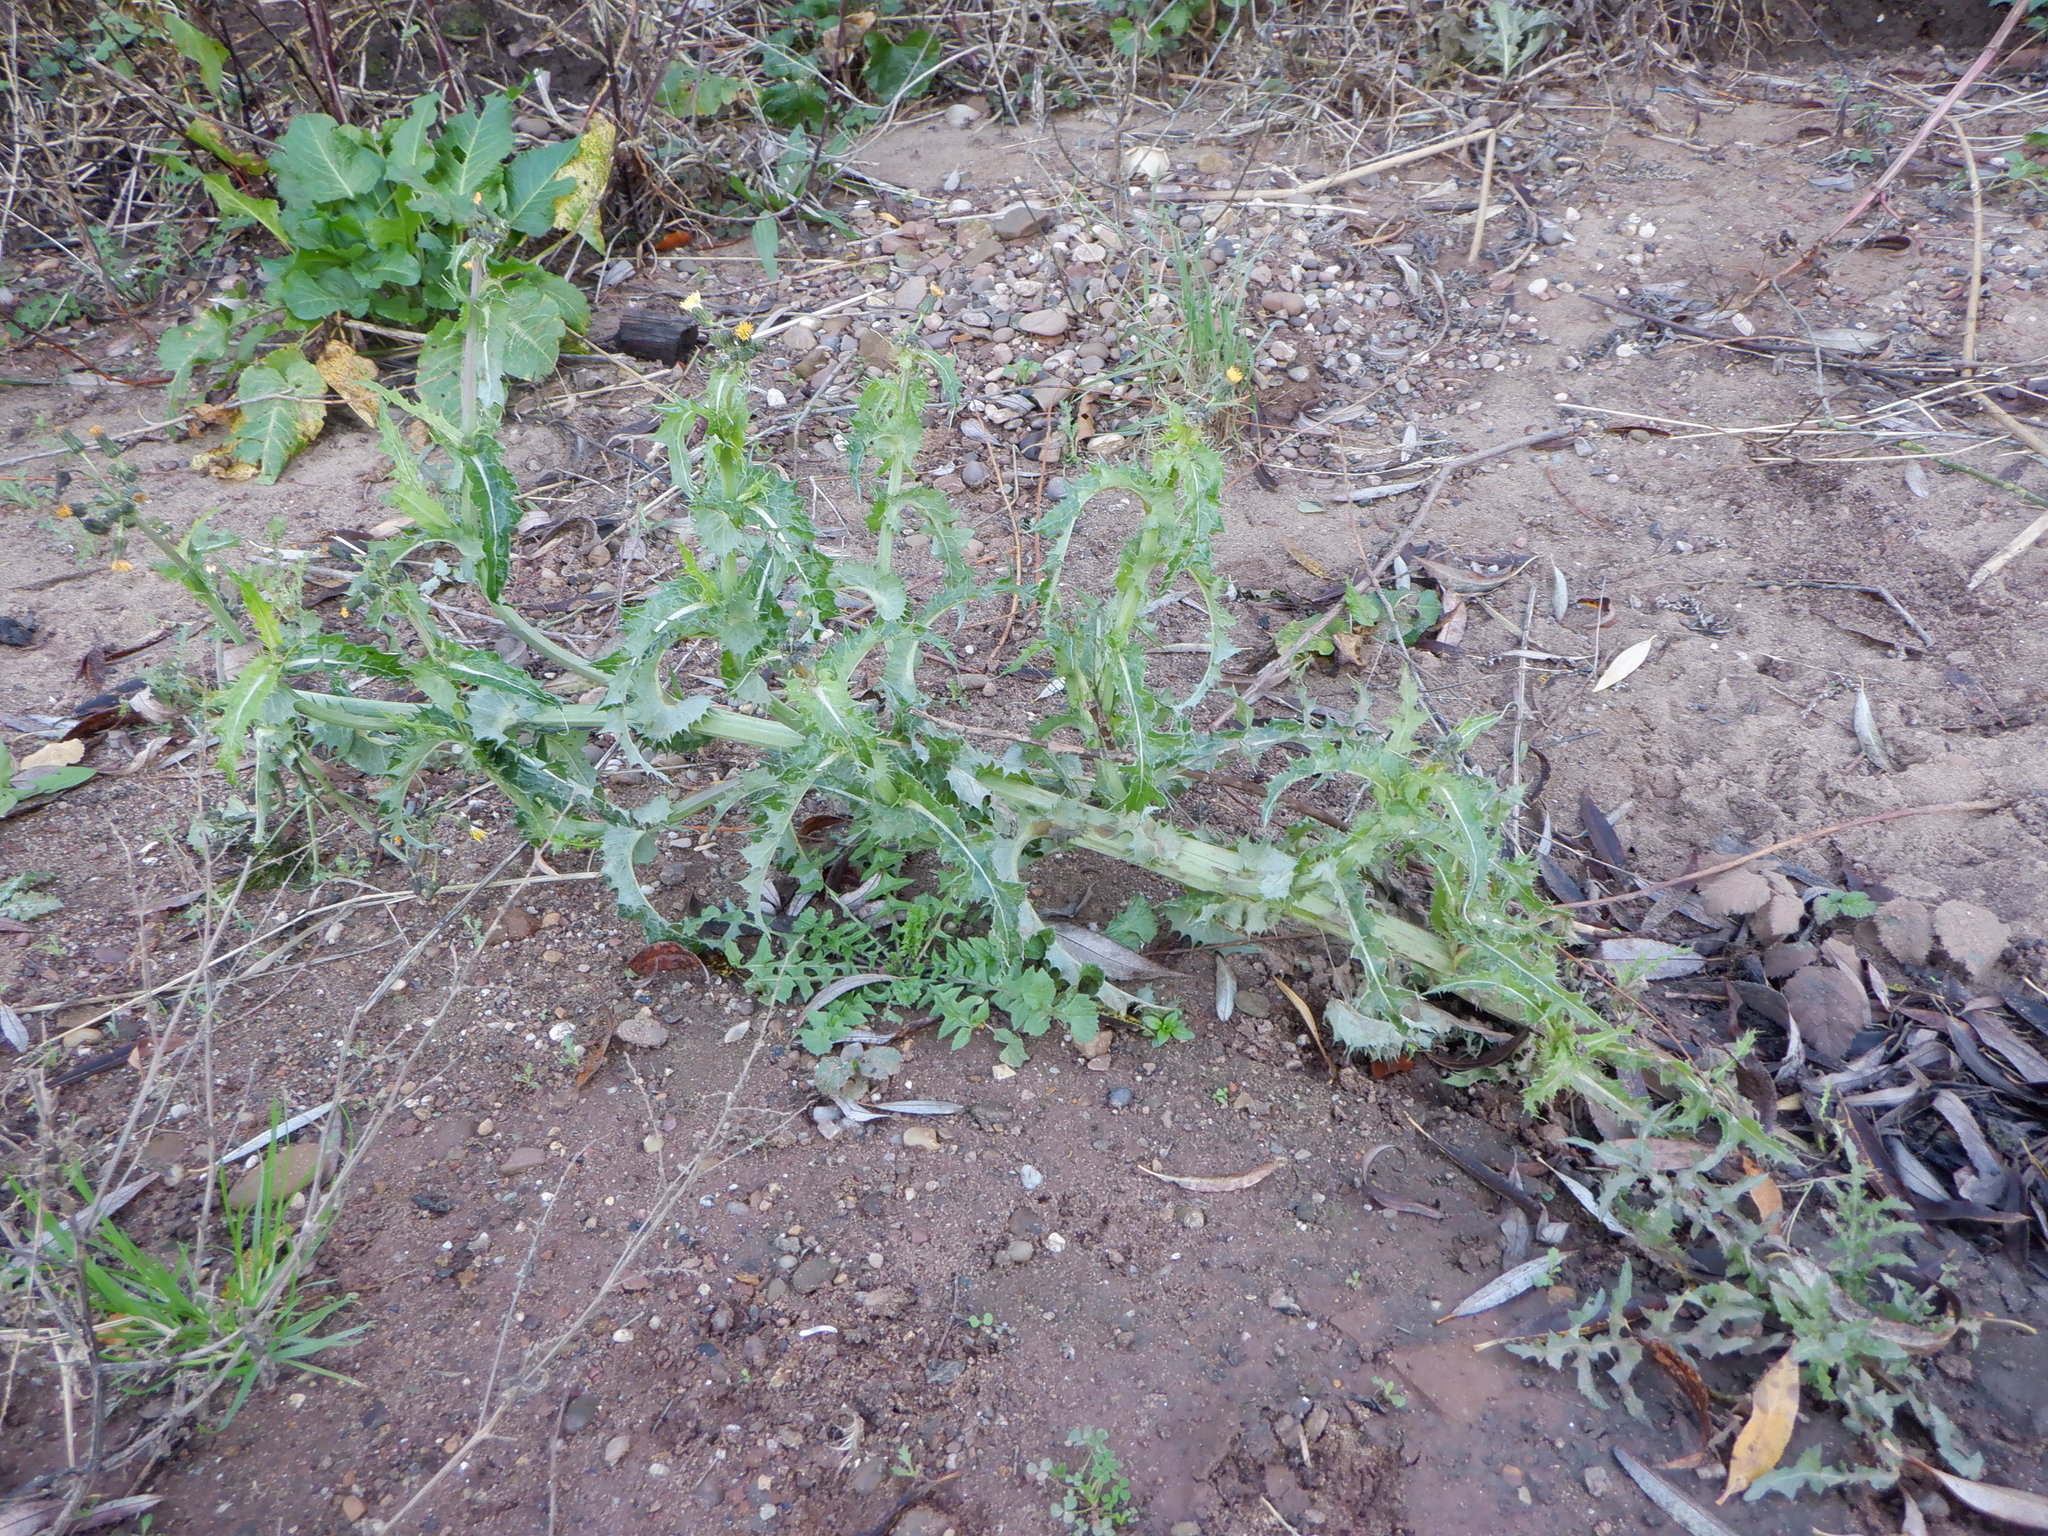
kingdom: Plantae
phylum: Tracheophyta
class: Magnoliopsida
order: Asterales
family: Asteraceae
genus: Sonchus
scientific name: Sonchus asper
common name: Prickly sow-thistle
